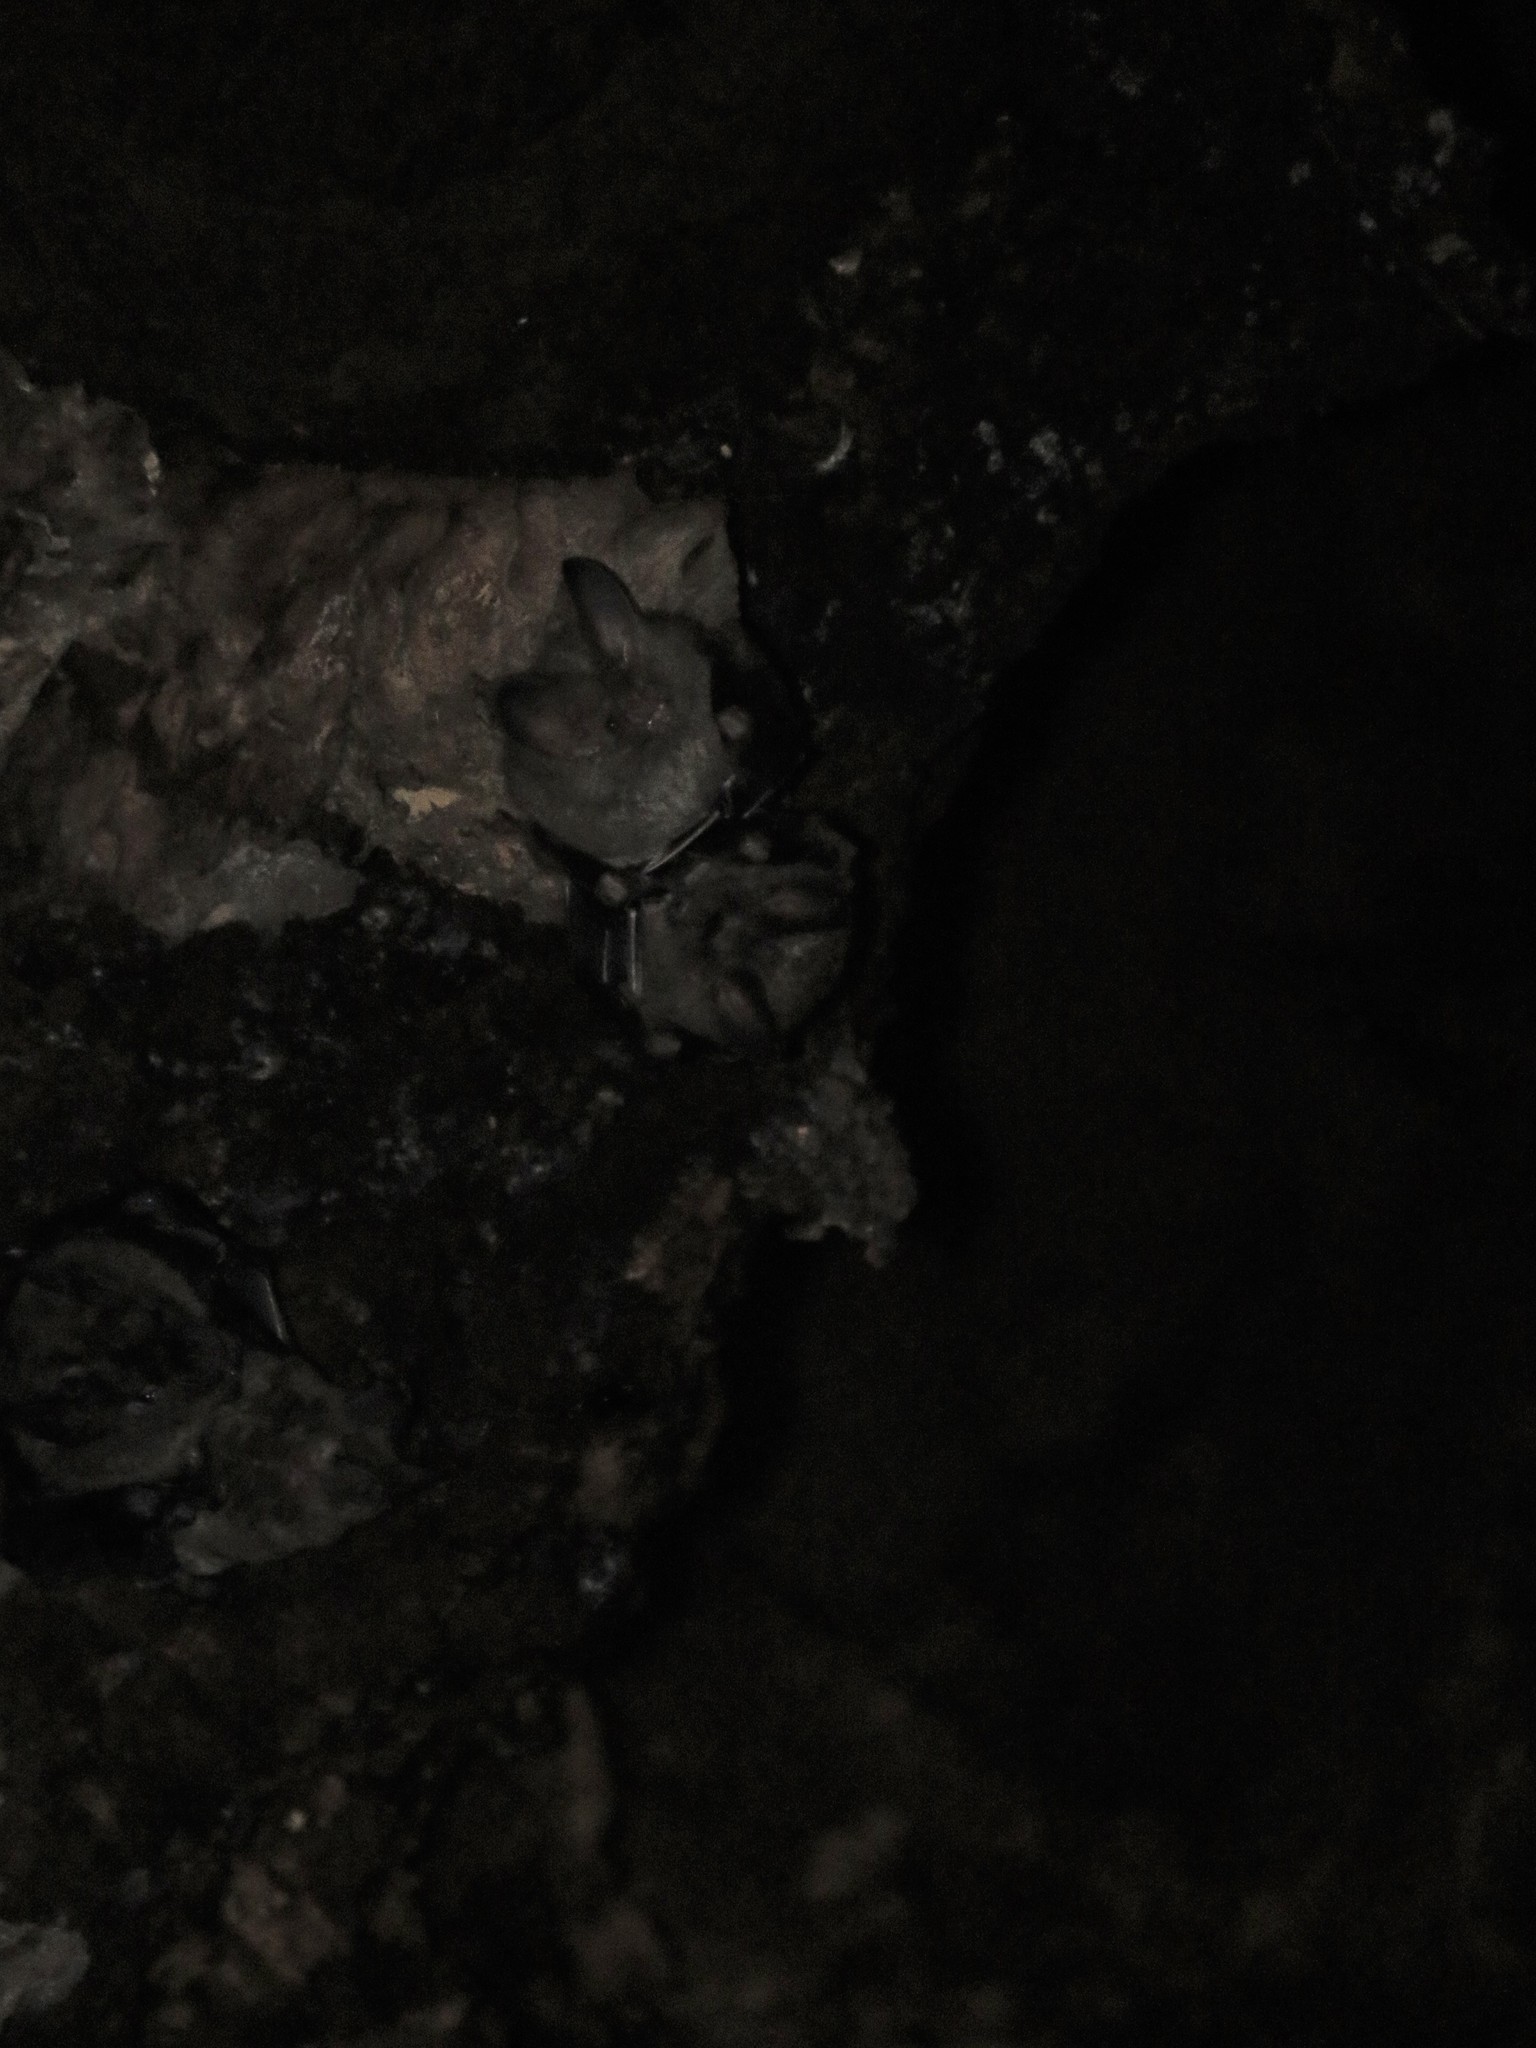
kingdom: Animalia
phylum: Chordata
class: Mammalia
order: Chiroptera
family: Phyllostomidae
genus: Trachops
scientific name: Trachops cirrhosus
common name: Fringe-lipped bat
